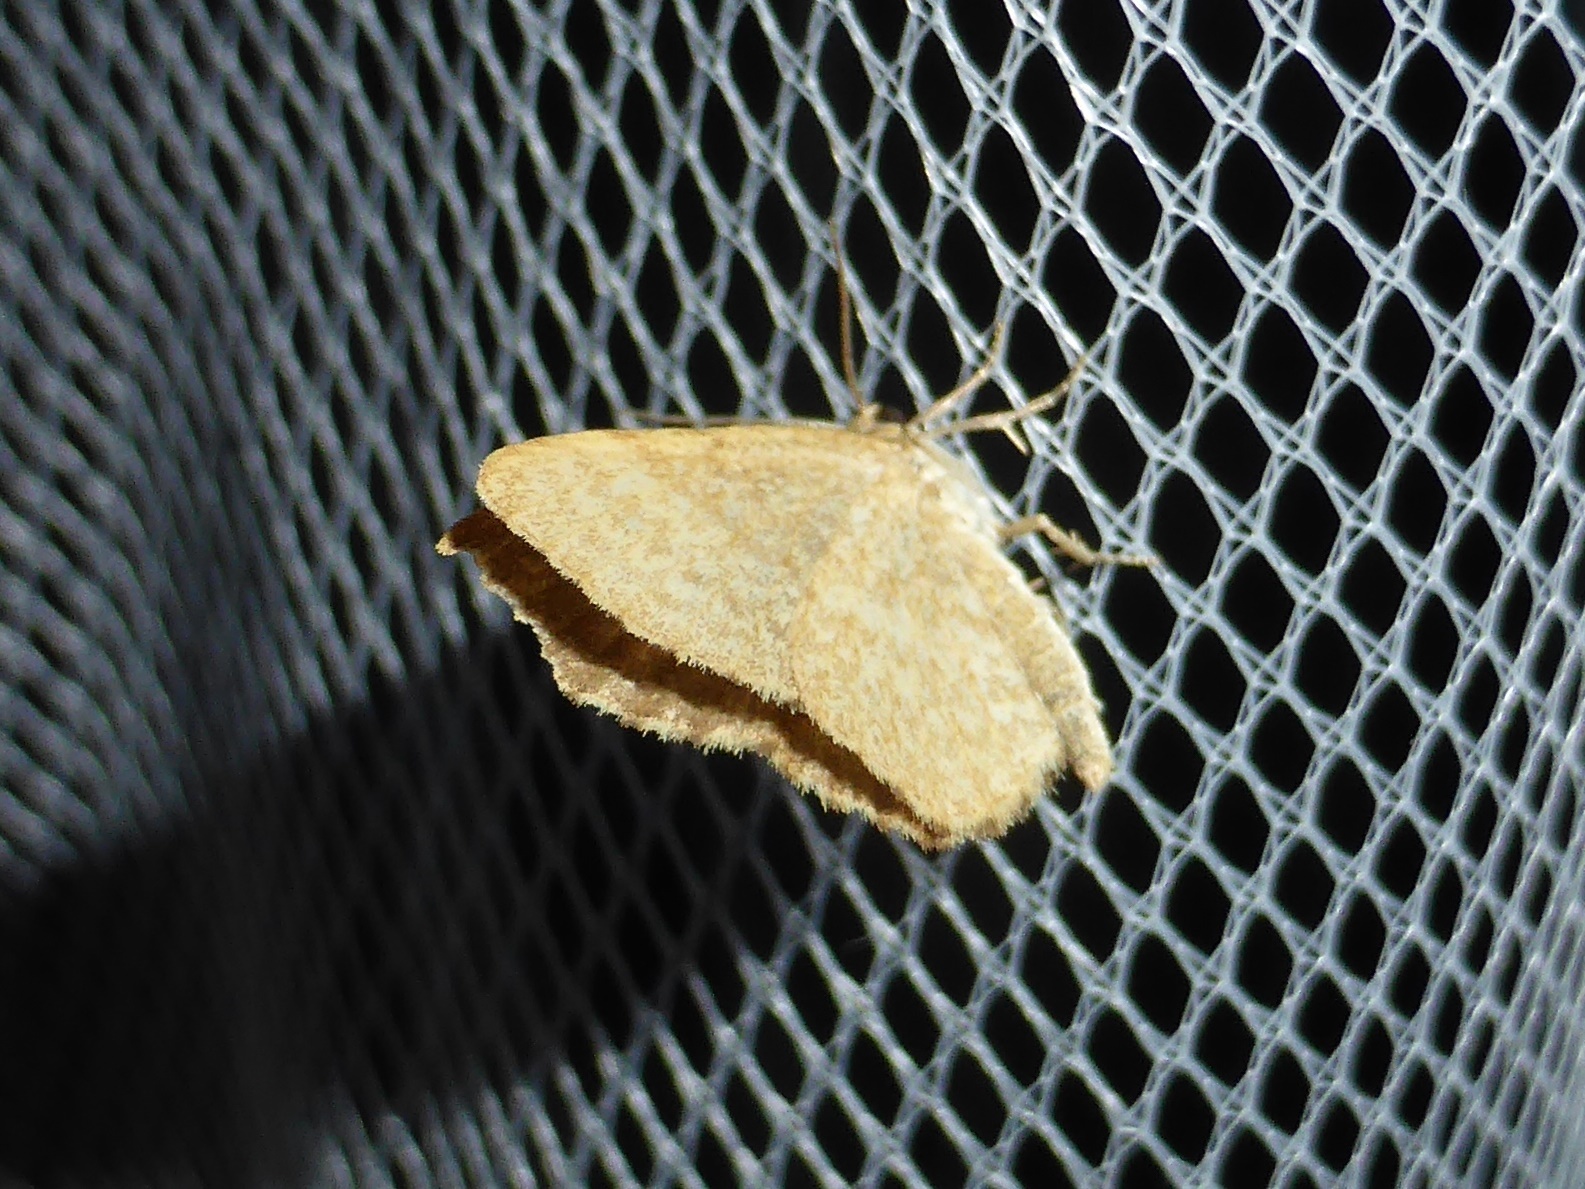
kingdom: Animalia
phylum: Arthropoda
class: Insecta
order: Lepidoptera
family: Geometridae
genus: Euchoeca
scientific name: Euchoeca nebulata
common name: Dingy shell
